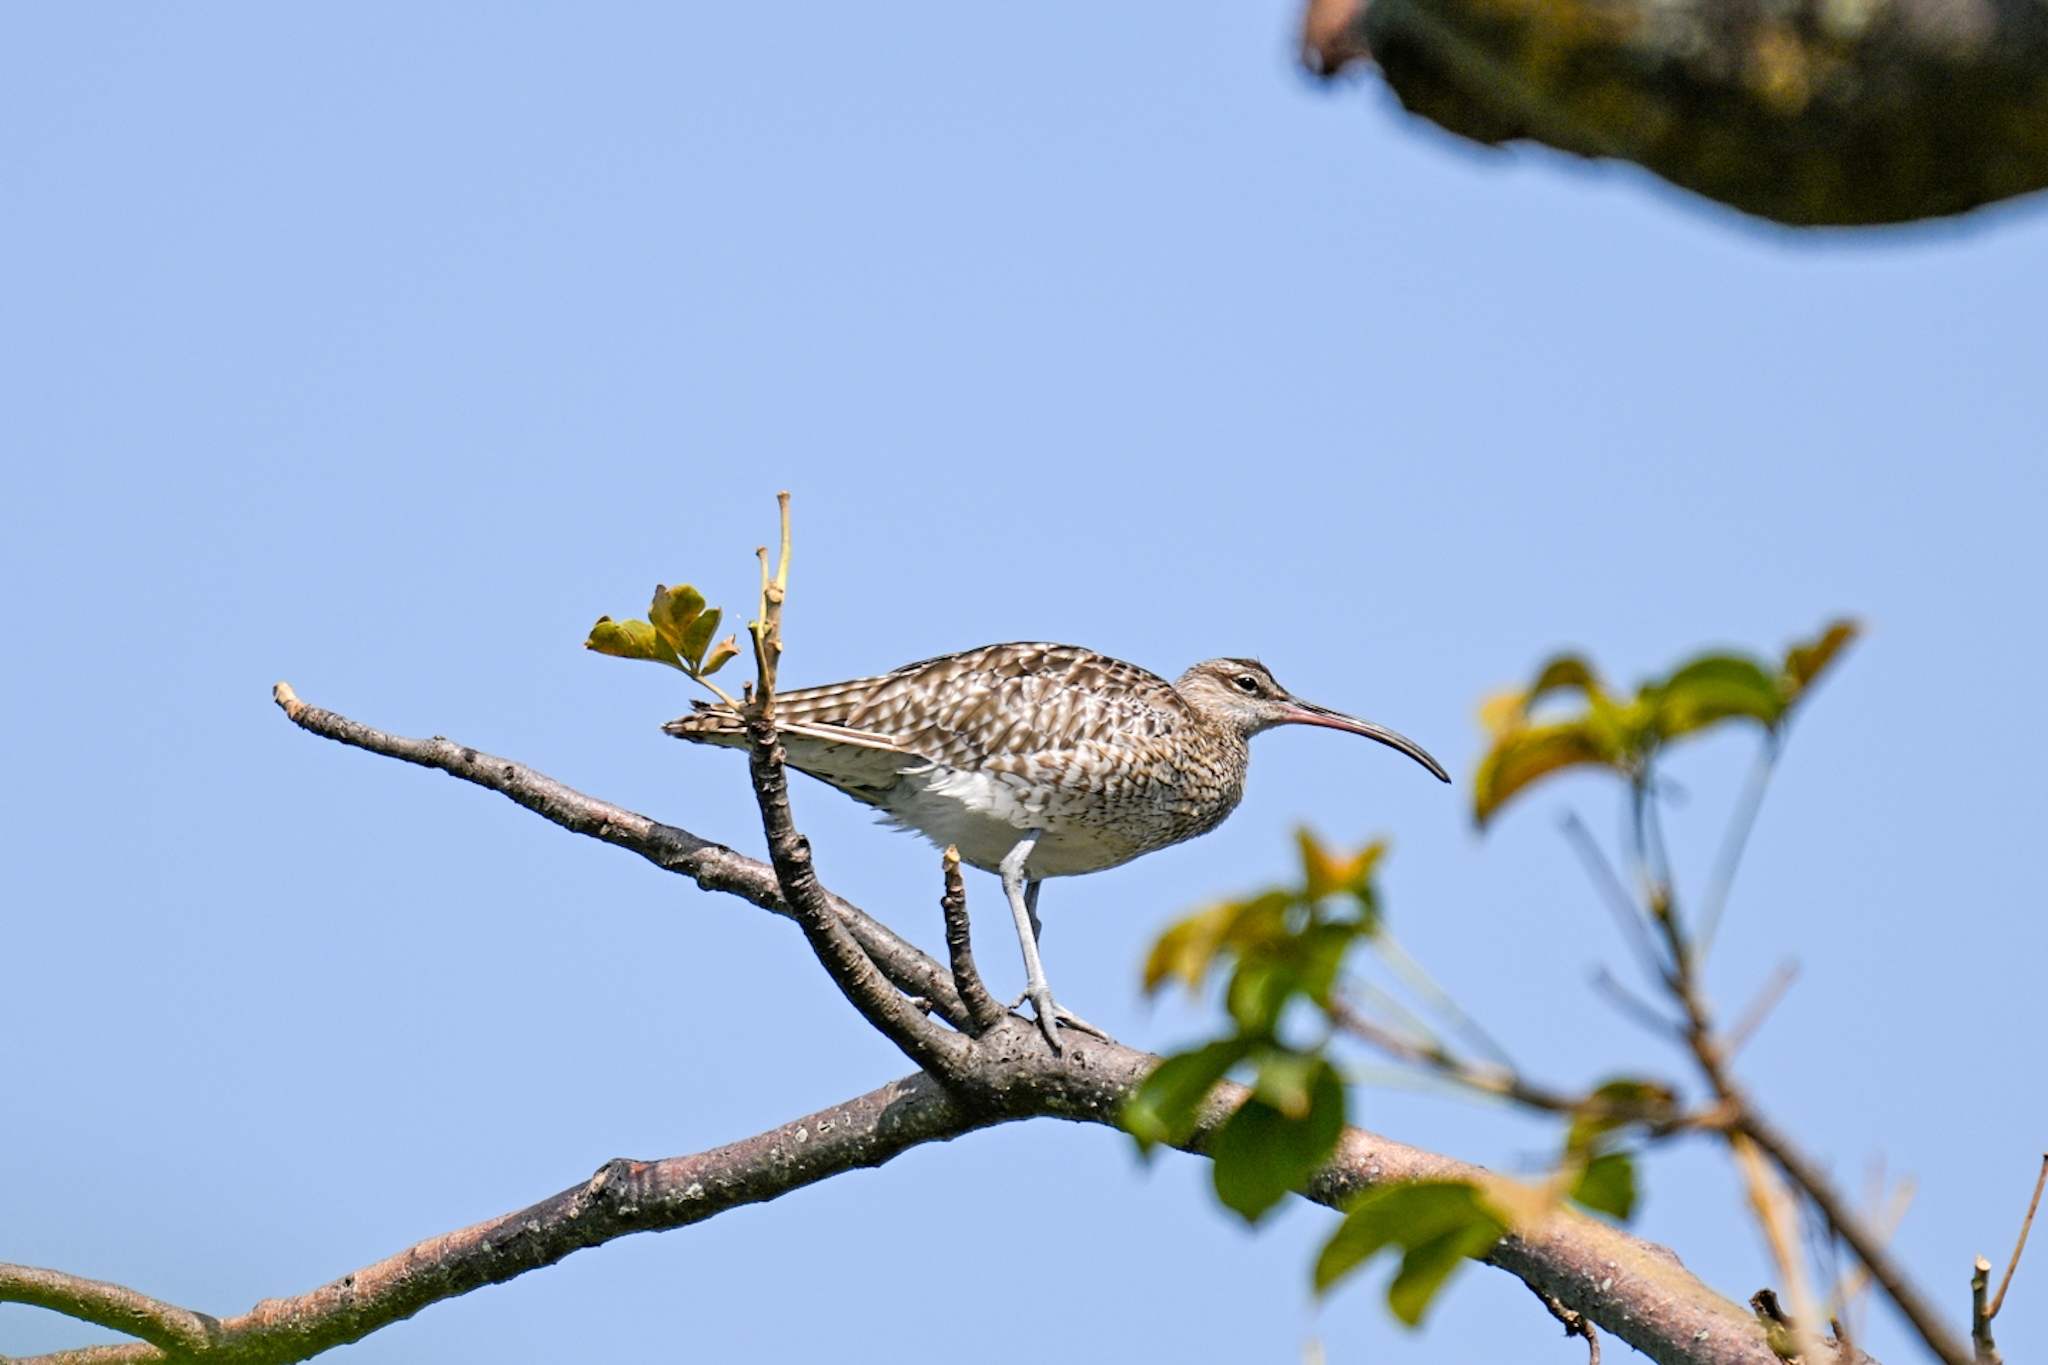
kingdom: Animalia
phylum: Chordata
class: Aves
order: Charadriiformes
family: Scolopacidae
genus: Numenius
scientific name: Numenius phaeopus
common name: Whimbrel
